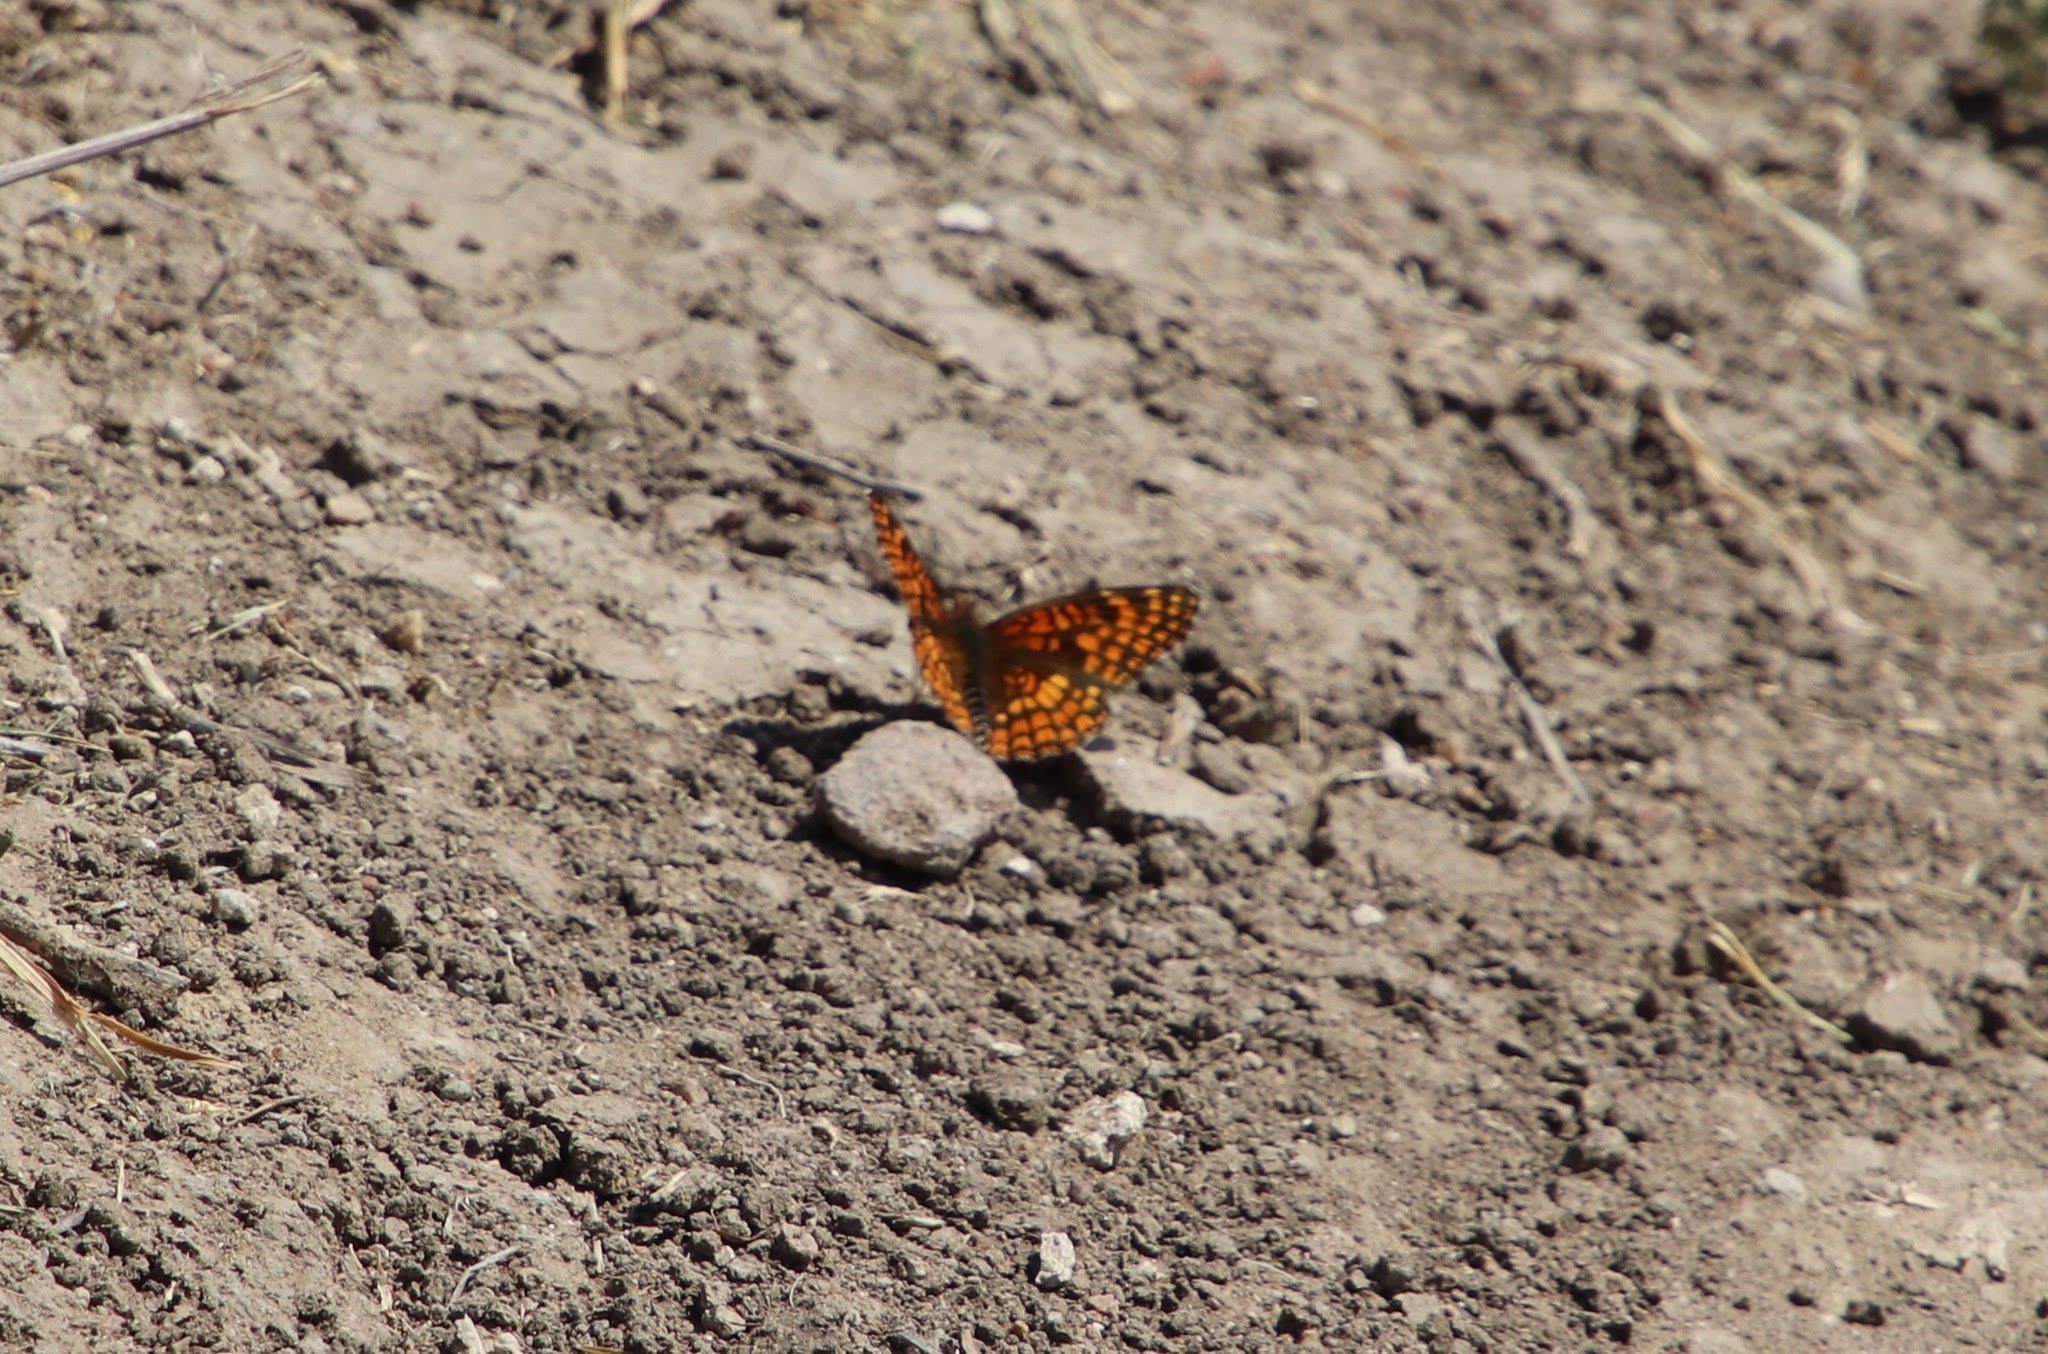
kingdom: Animalia
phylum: Arthropoda
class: Insecta
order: Lepidoptera
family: Nymphalidae
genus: Chlosyne
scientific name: Chlosyne gabbii
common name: Gabb's checkerspot
